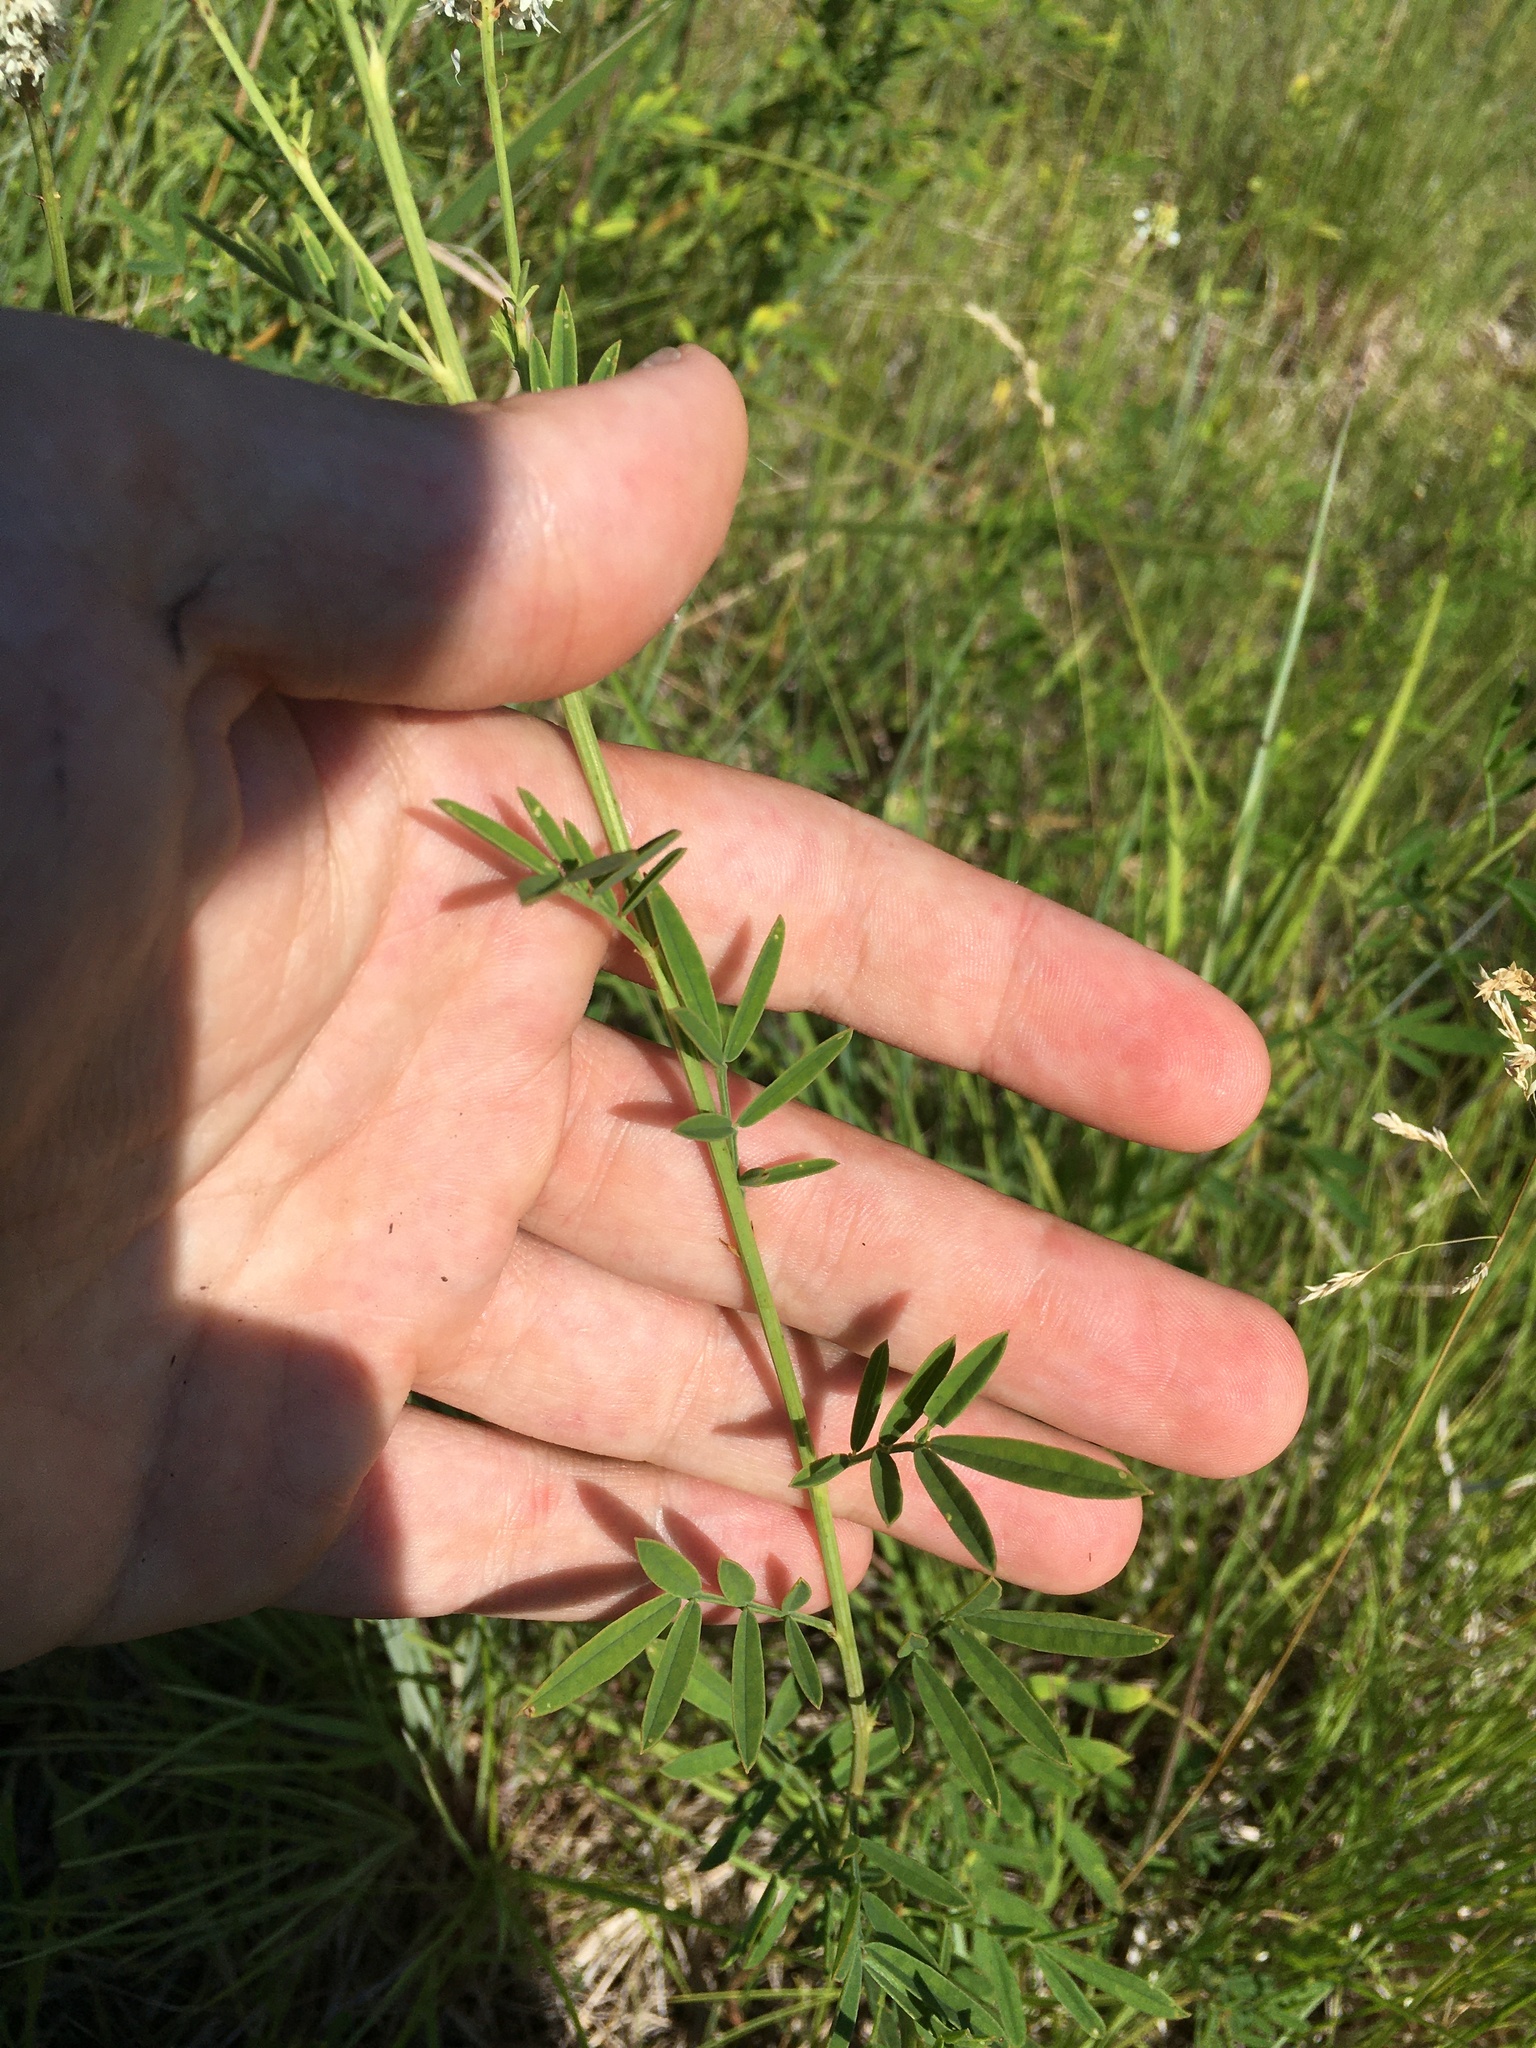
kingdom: Plantae
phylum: Tracheophyta
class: Magnoliopsida
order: Fabales
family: Fabaceae
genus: Dalea
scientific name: Dalea candida
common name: White prairie-clover
